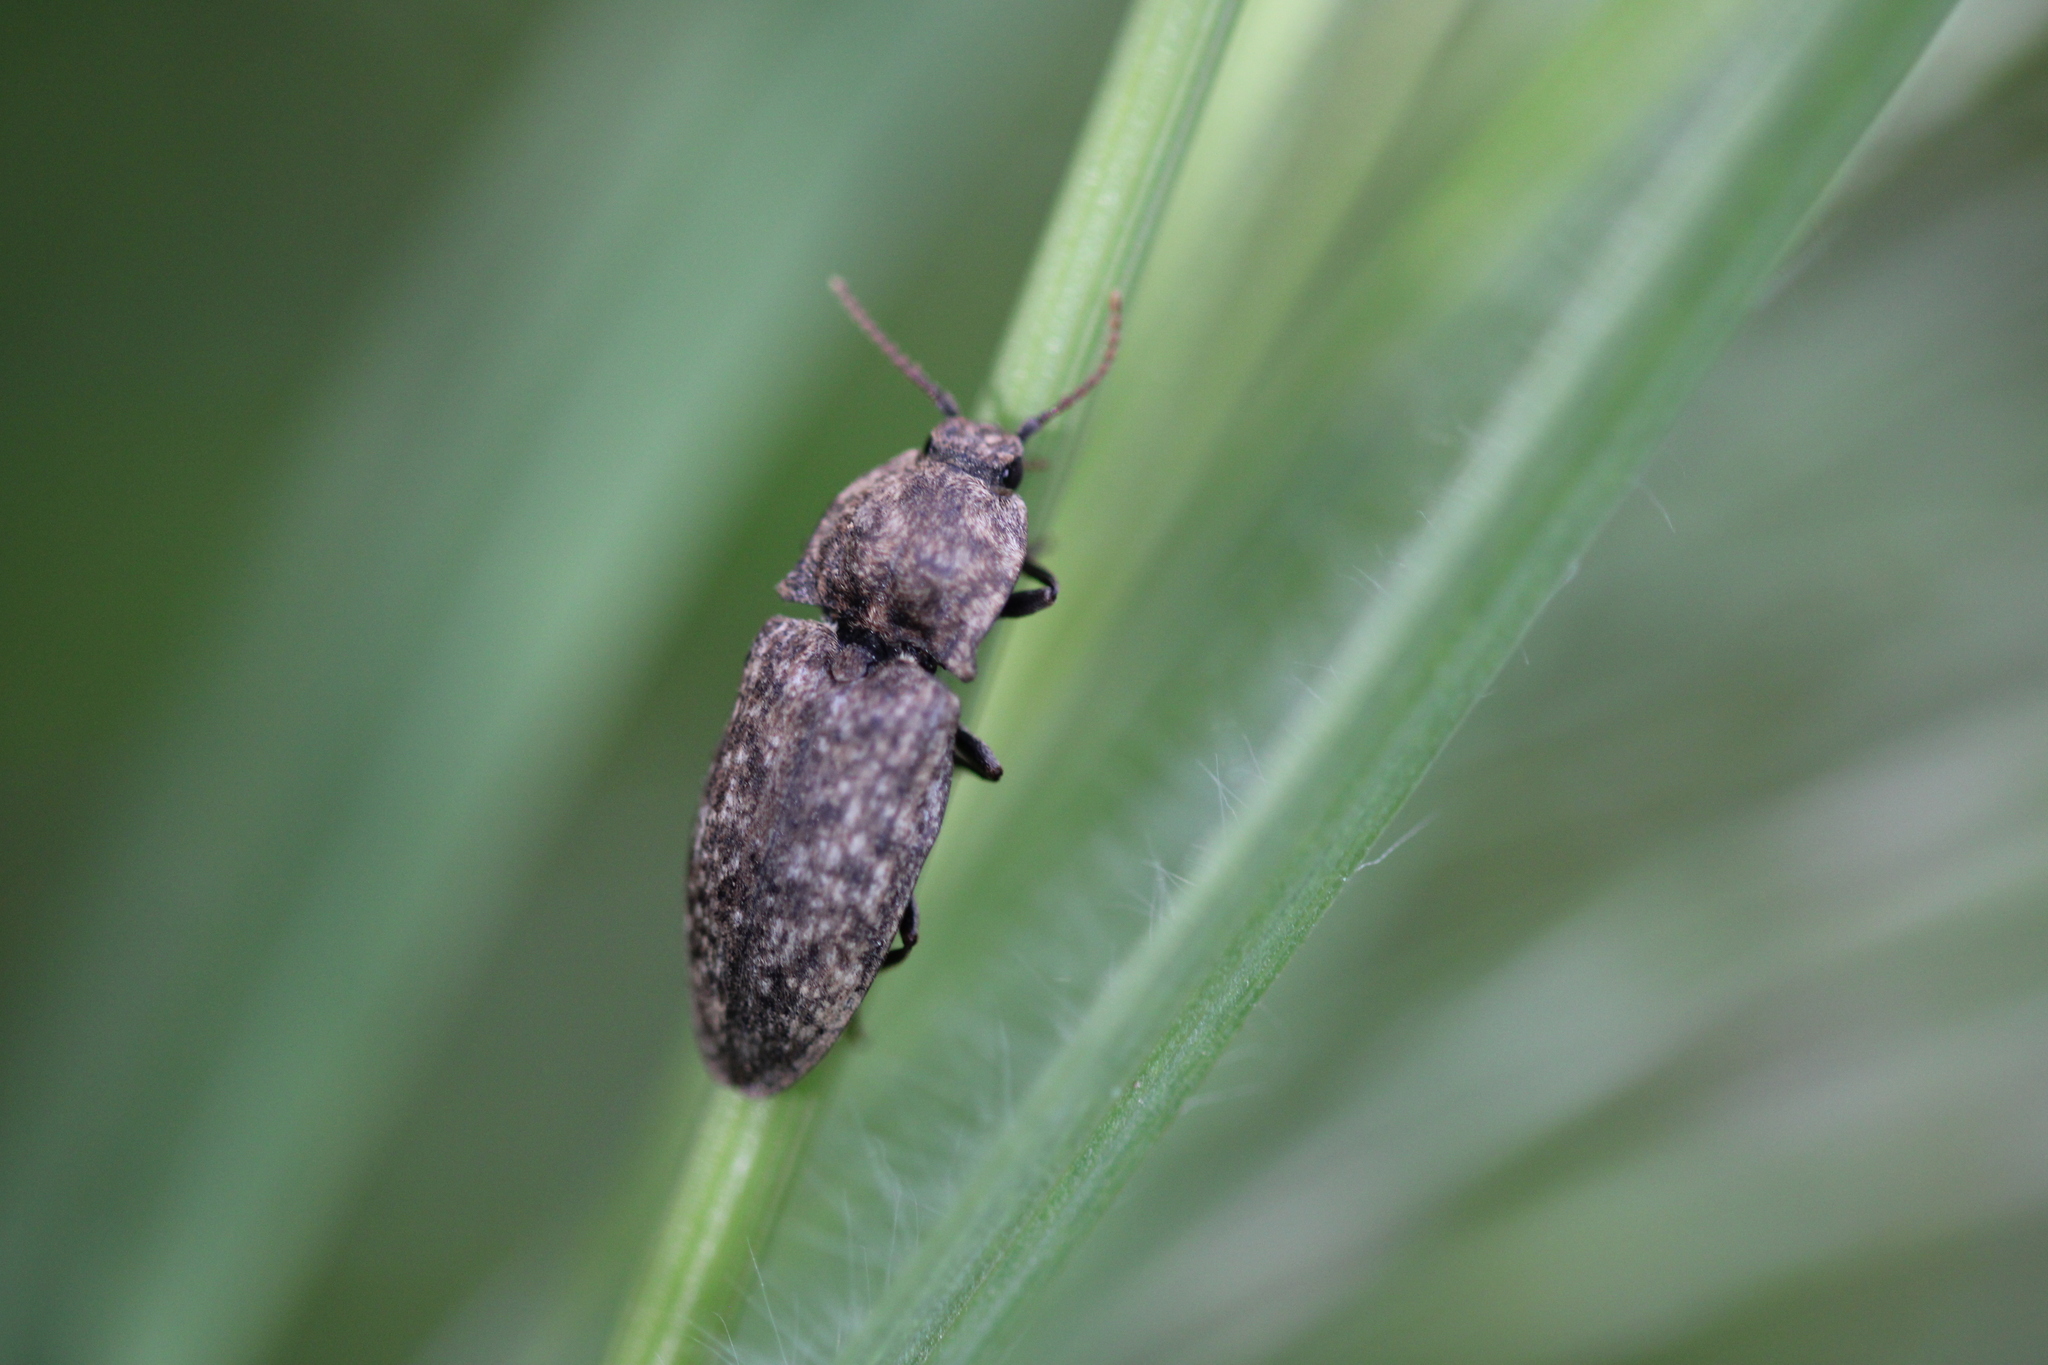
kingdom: Animalia
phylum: Arthropoda
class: Insecta
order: Coleoptera
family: Elateridae
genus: Agrypnus
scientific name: Agrypnus murinus
